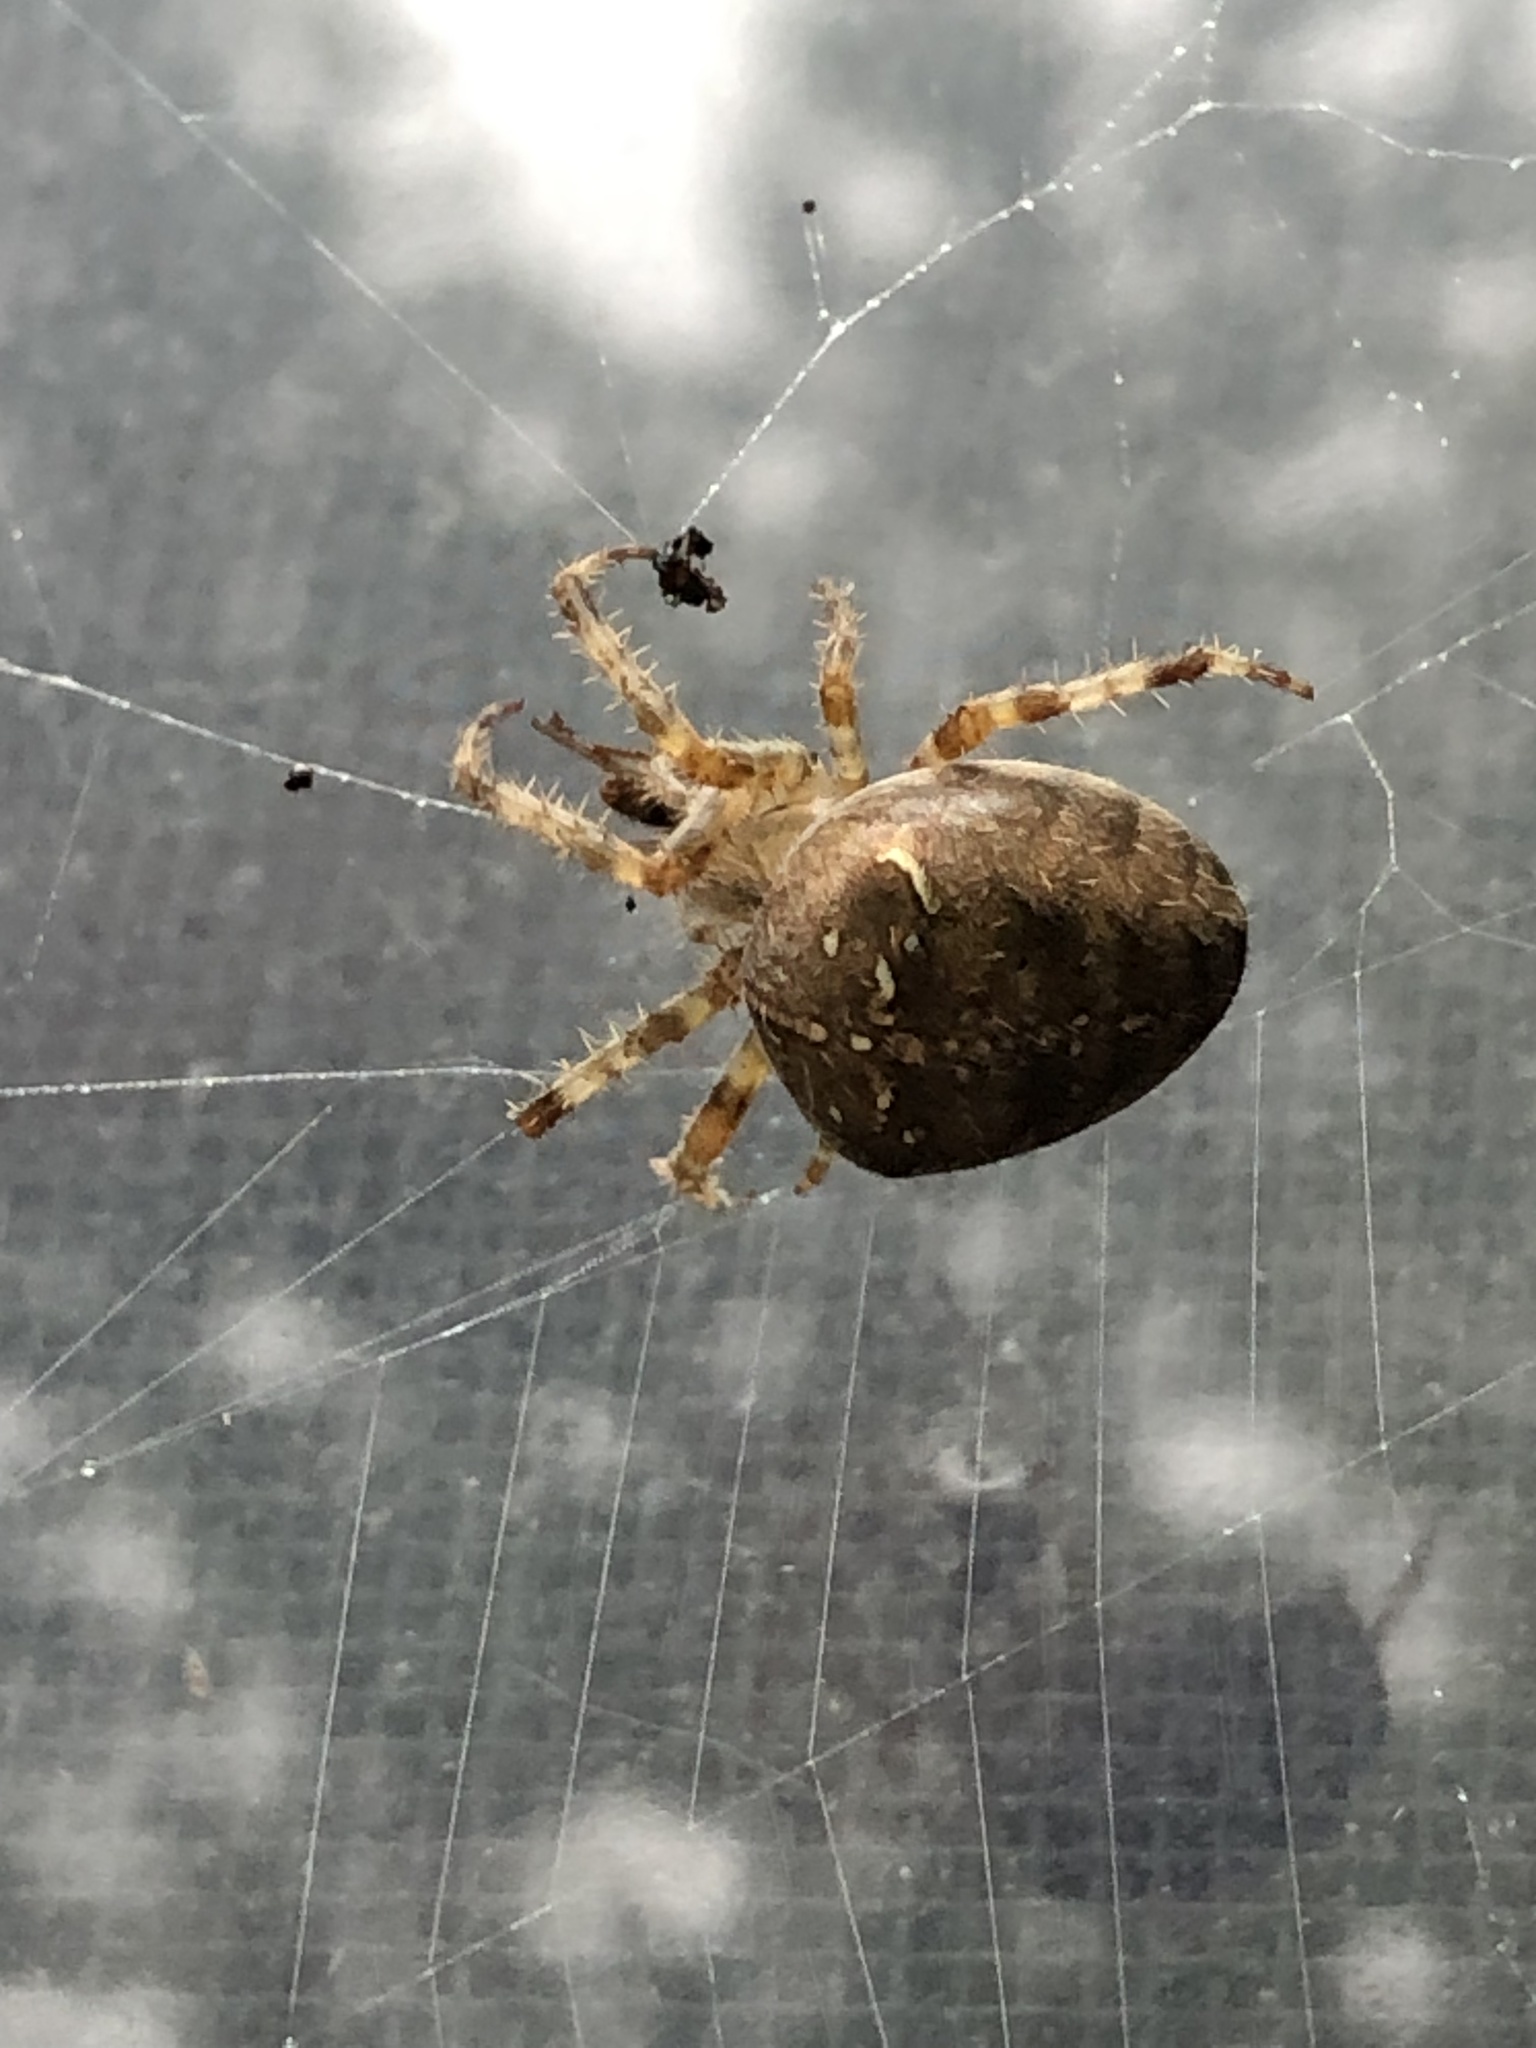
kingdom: Animalia
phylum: Arthropoda
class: Arachnida
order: Araneae
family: Araneidae
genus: Araneus
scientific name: Araneus diadematus
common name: Cross orbweaver
